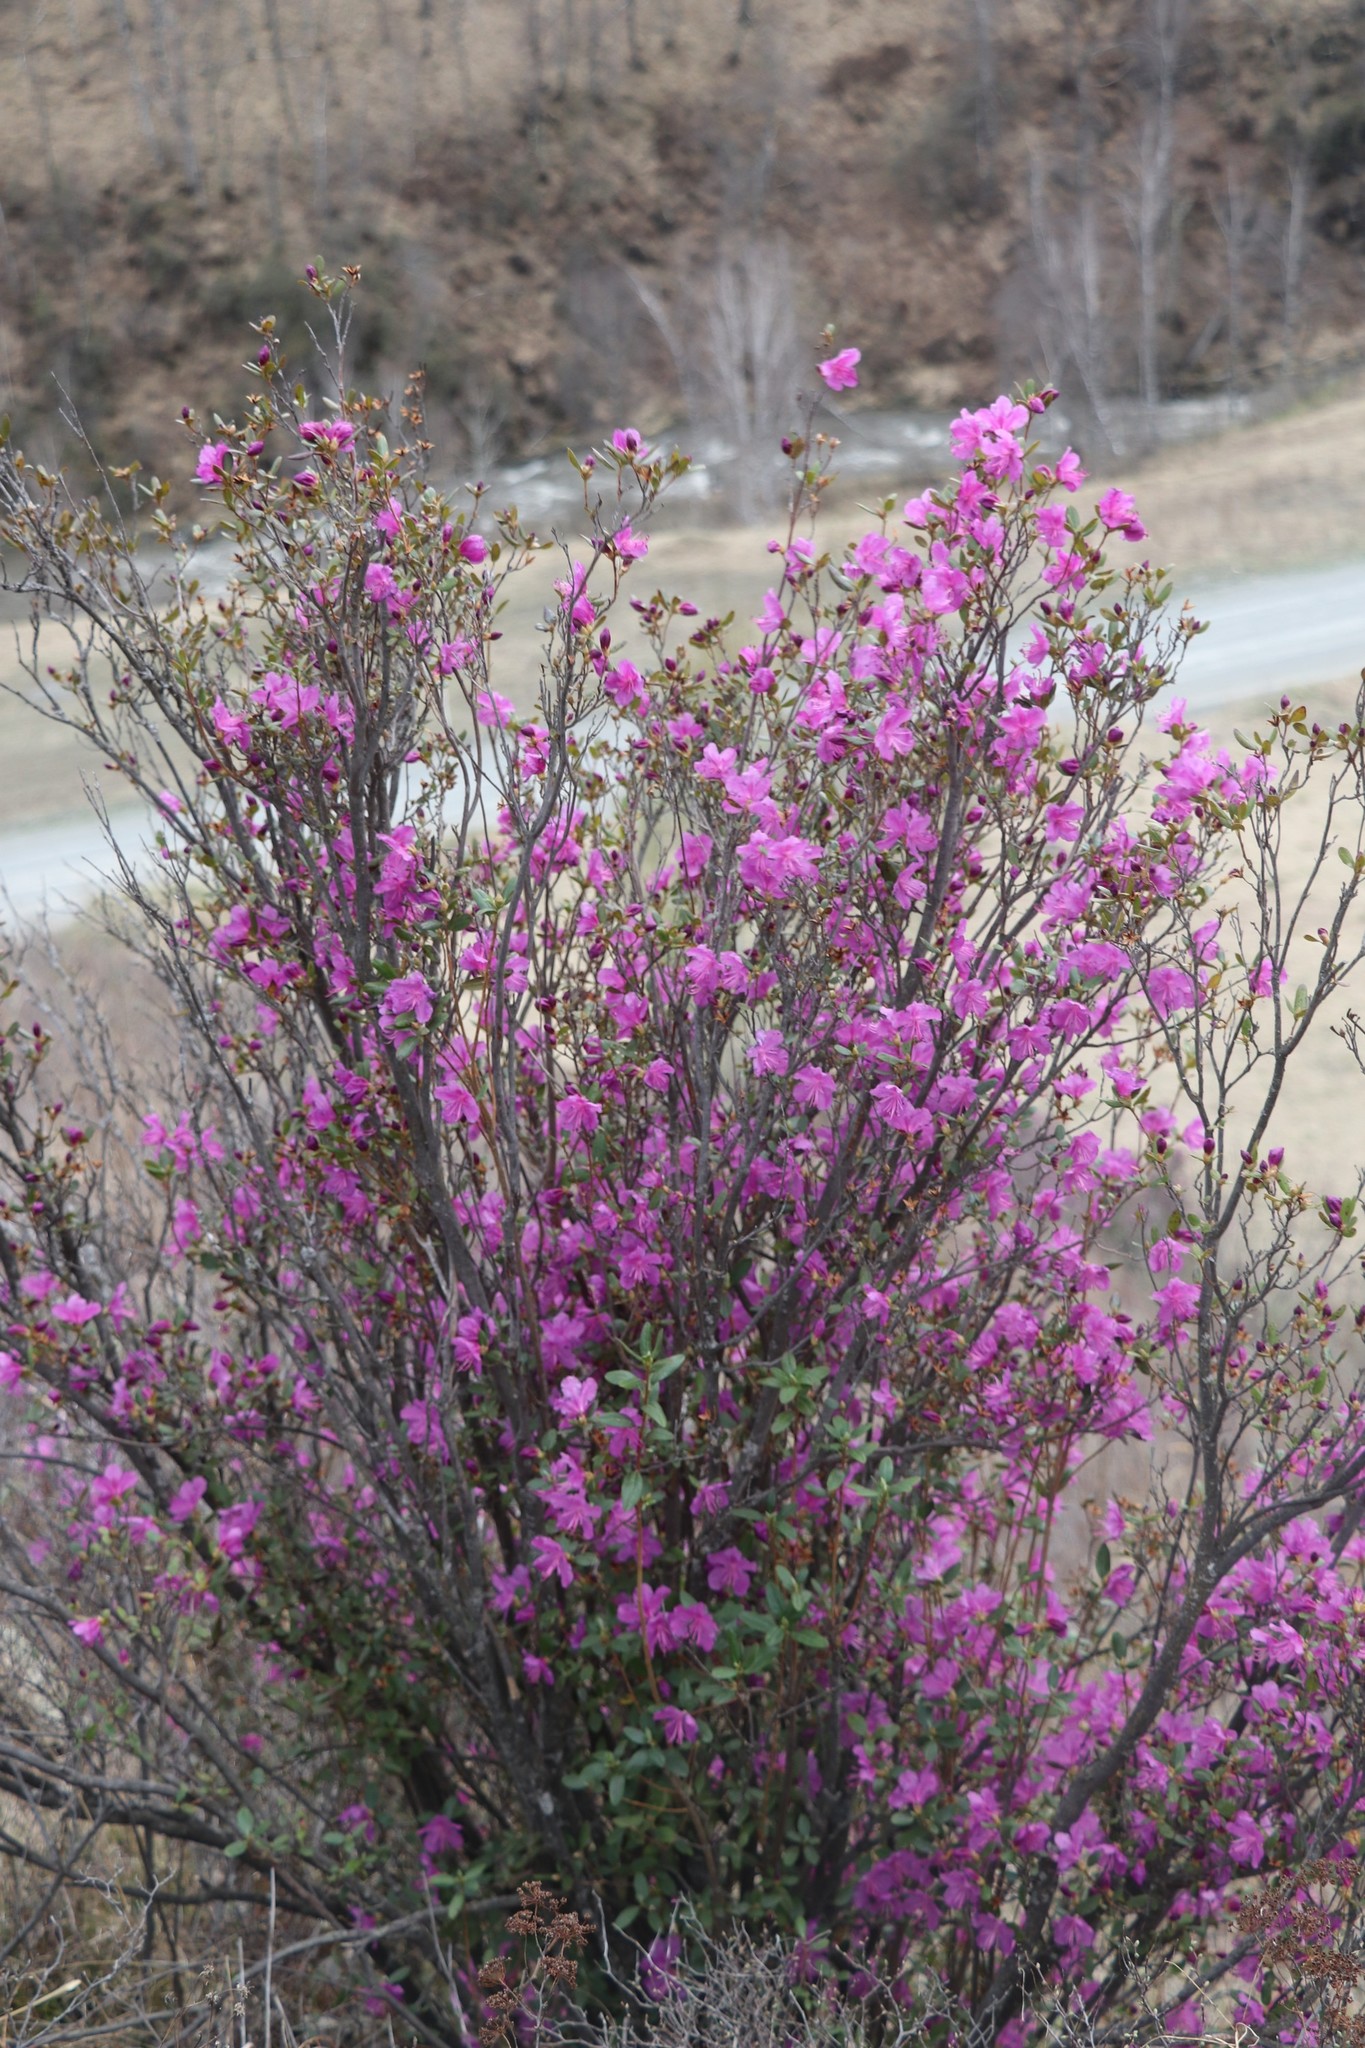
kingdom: Plantae
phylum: Tracheophyta
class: Magnoliopsida
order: Ericales
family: Ericaceae
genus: Rhododendron
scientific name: Rhododendron dauricum
